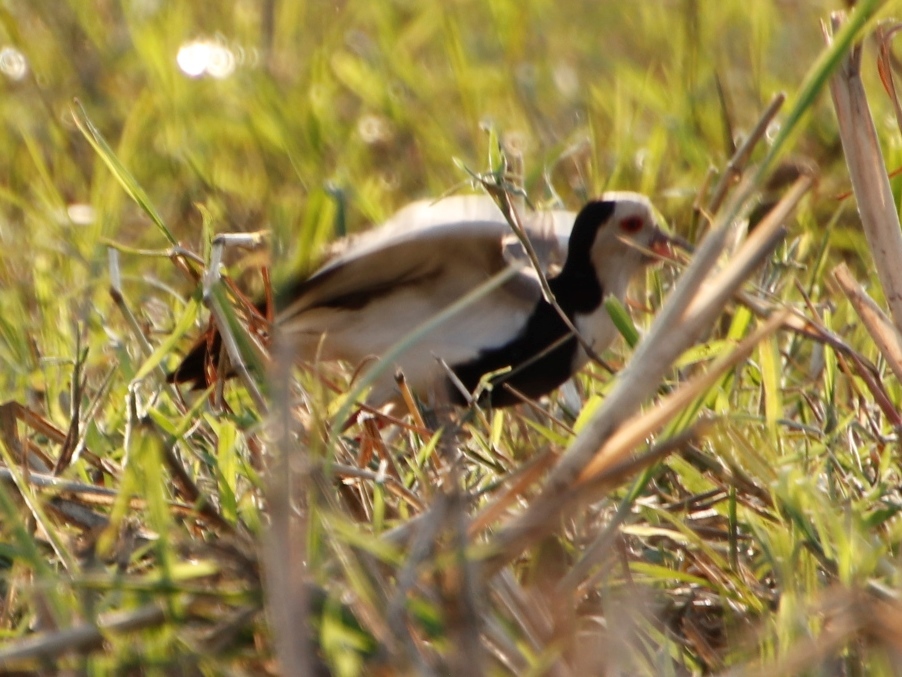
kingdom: Animalia
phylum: Chordata
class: Aves
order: Charadriiformes
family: Charadriidae
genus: Vanellus
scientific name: Vanellus crassirostris
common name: Long-toed lapwing
